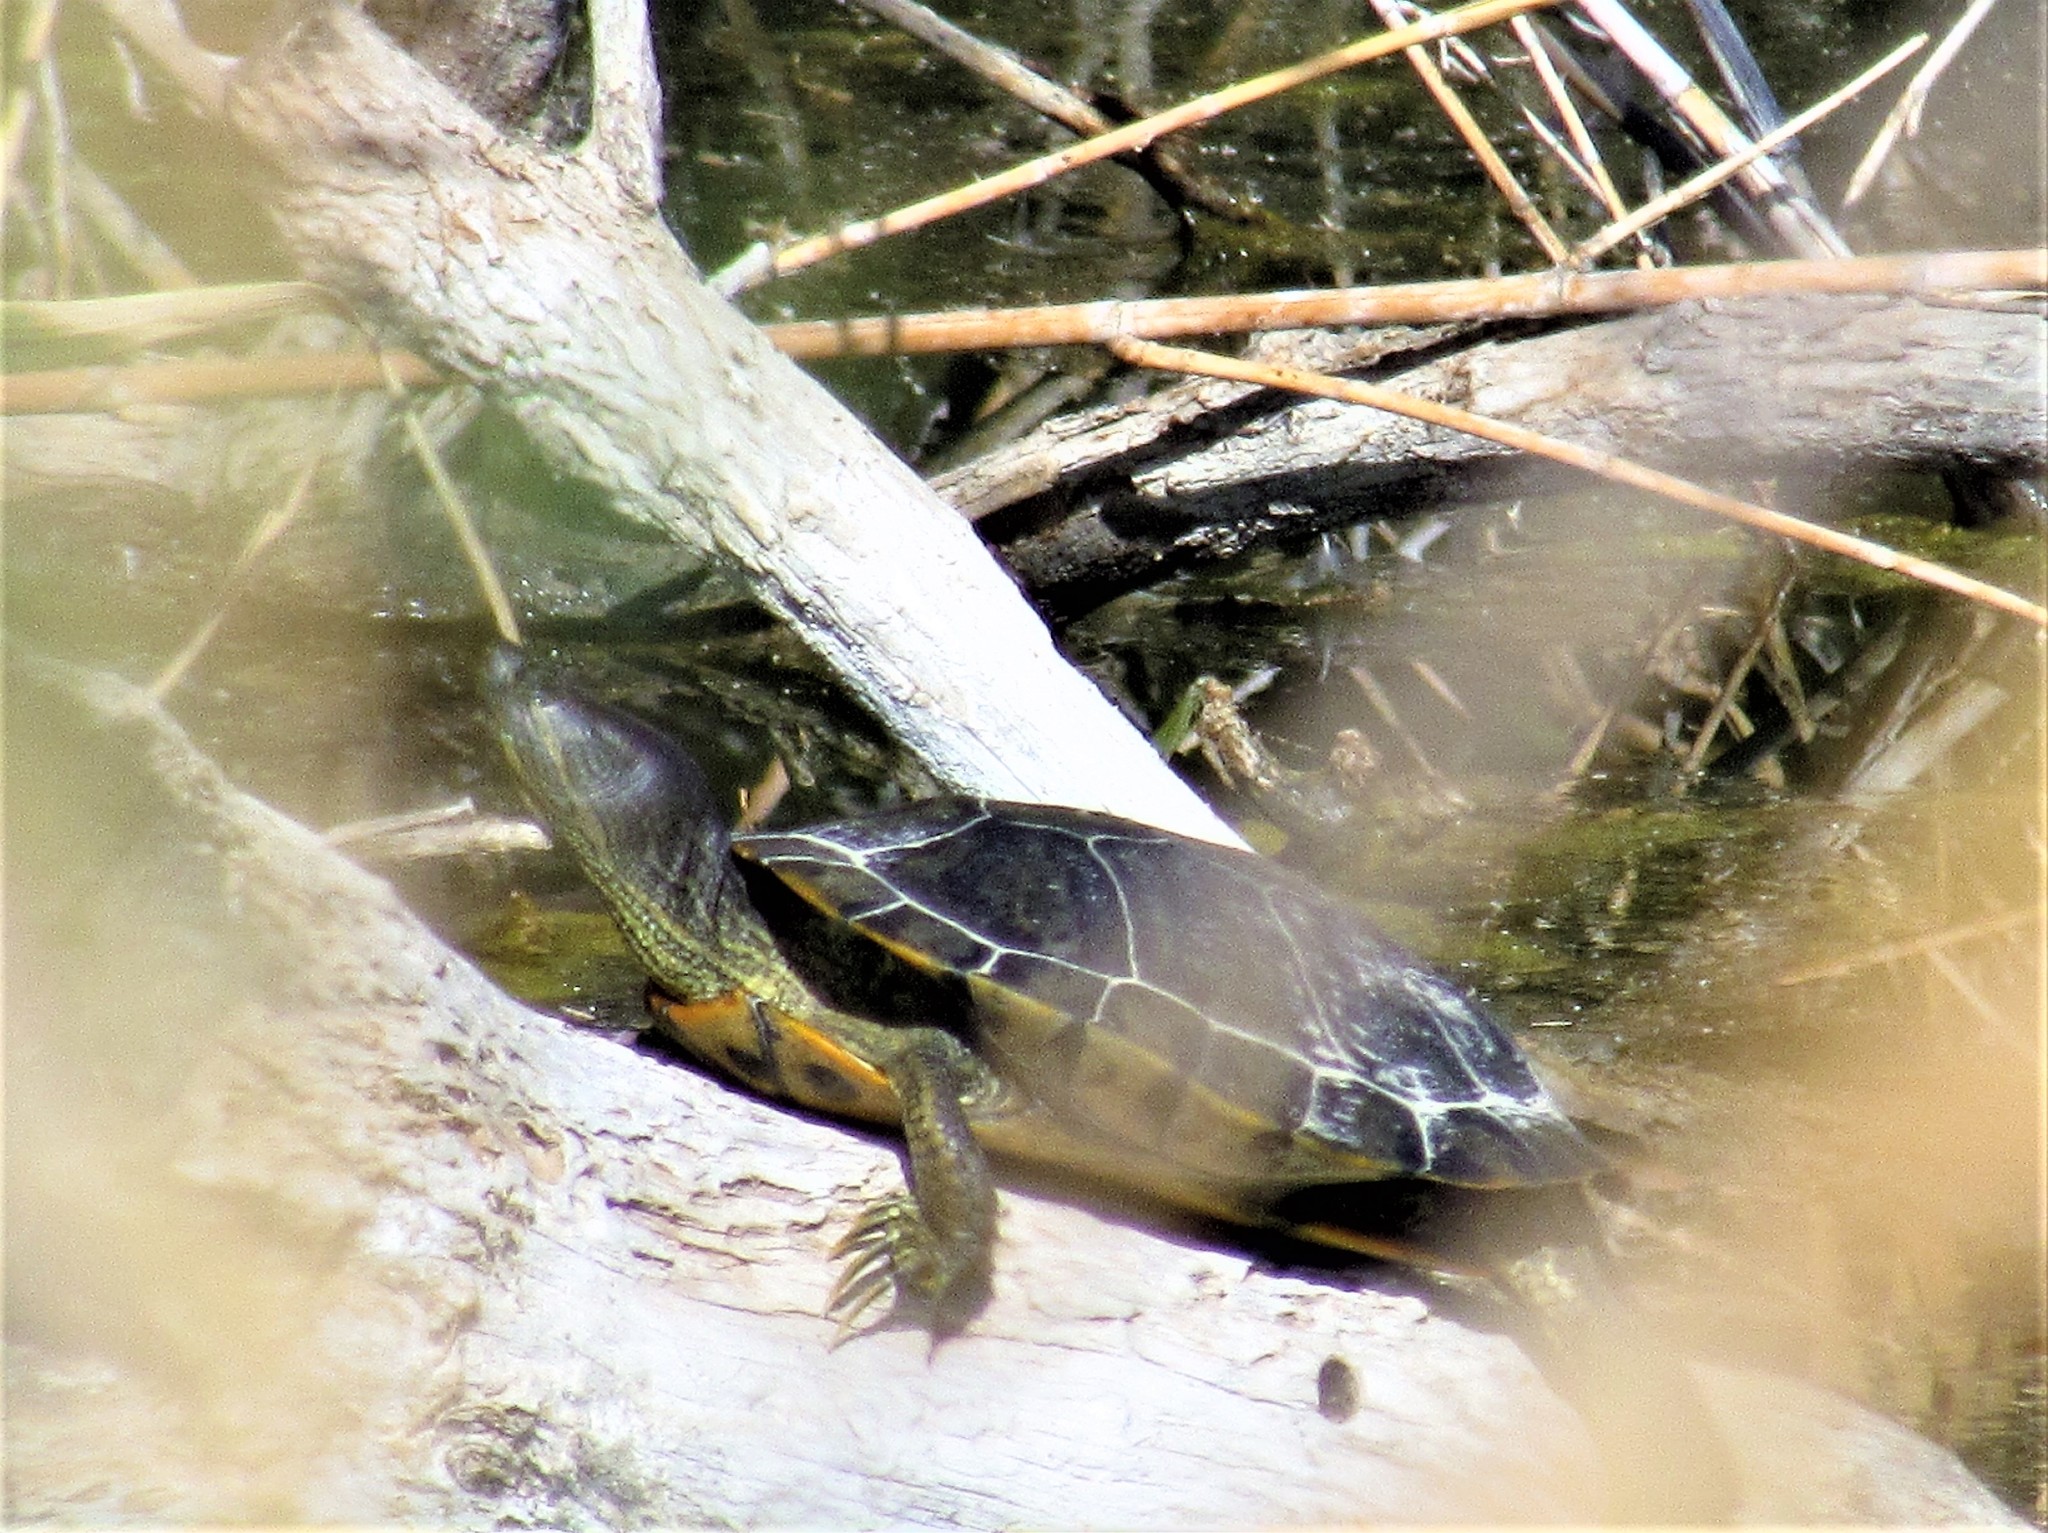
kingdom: Animalia
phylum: Chordata
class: Testudines
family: Emydidae
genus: Trachemys
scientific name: Trachemys scripta
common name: Slider
